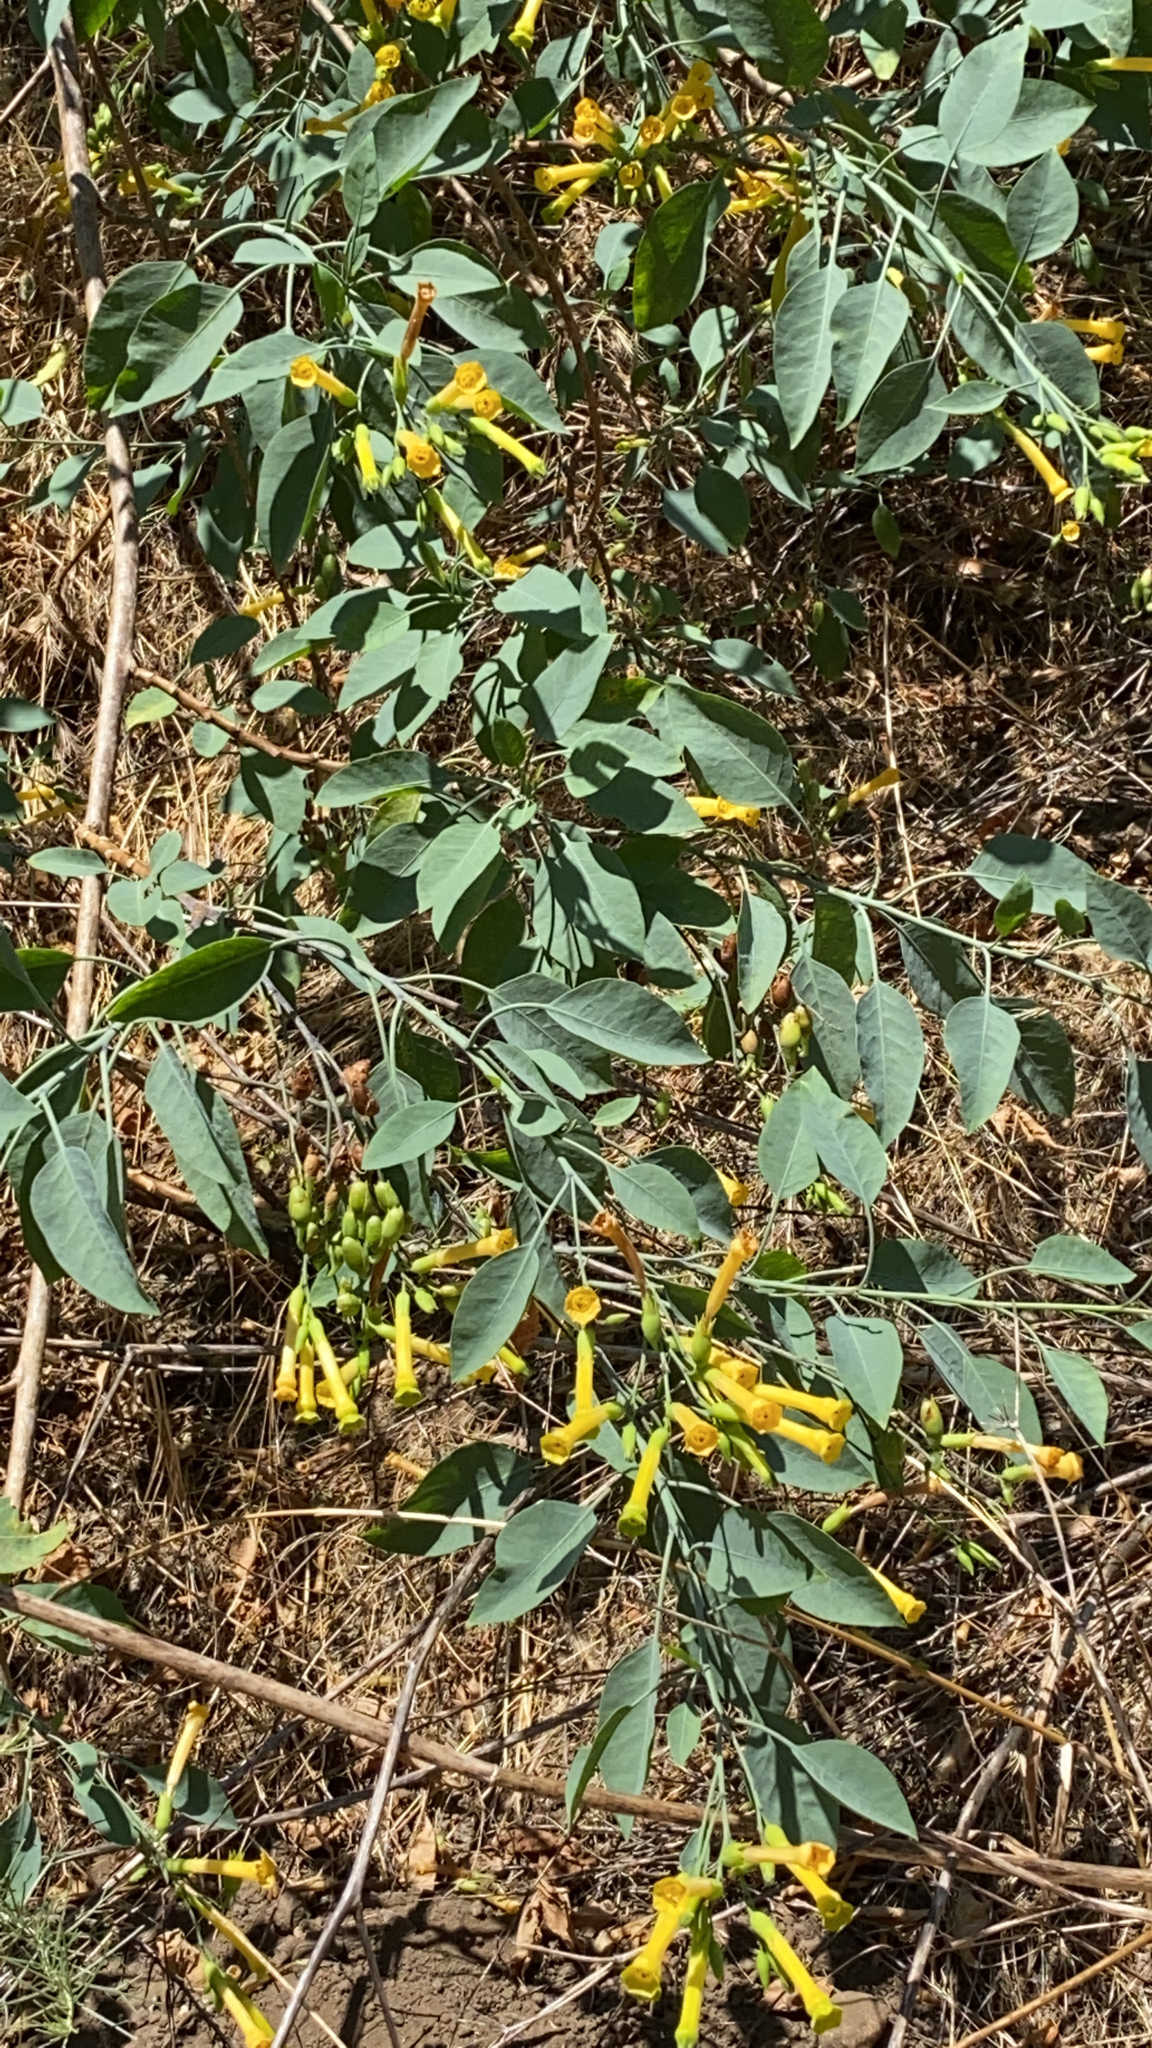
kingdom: Plantae
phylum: Tracheophyta
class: Magnoliopsida
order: Solanales
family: Solanaceae
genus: Nicotiana
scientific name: Nicotiana glauca
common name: Tree tobacco
